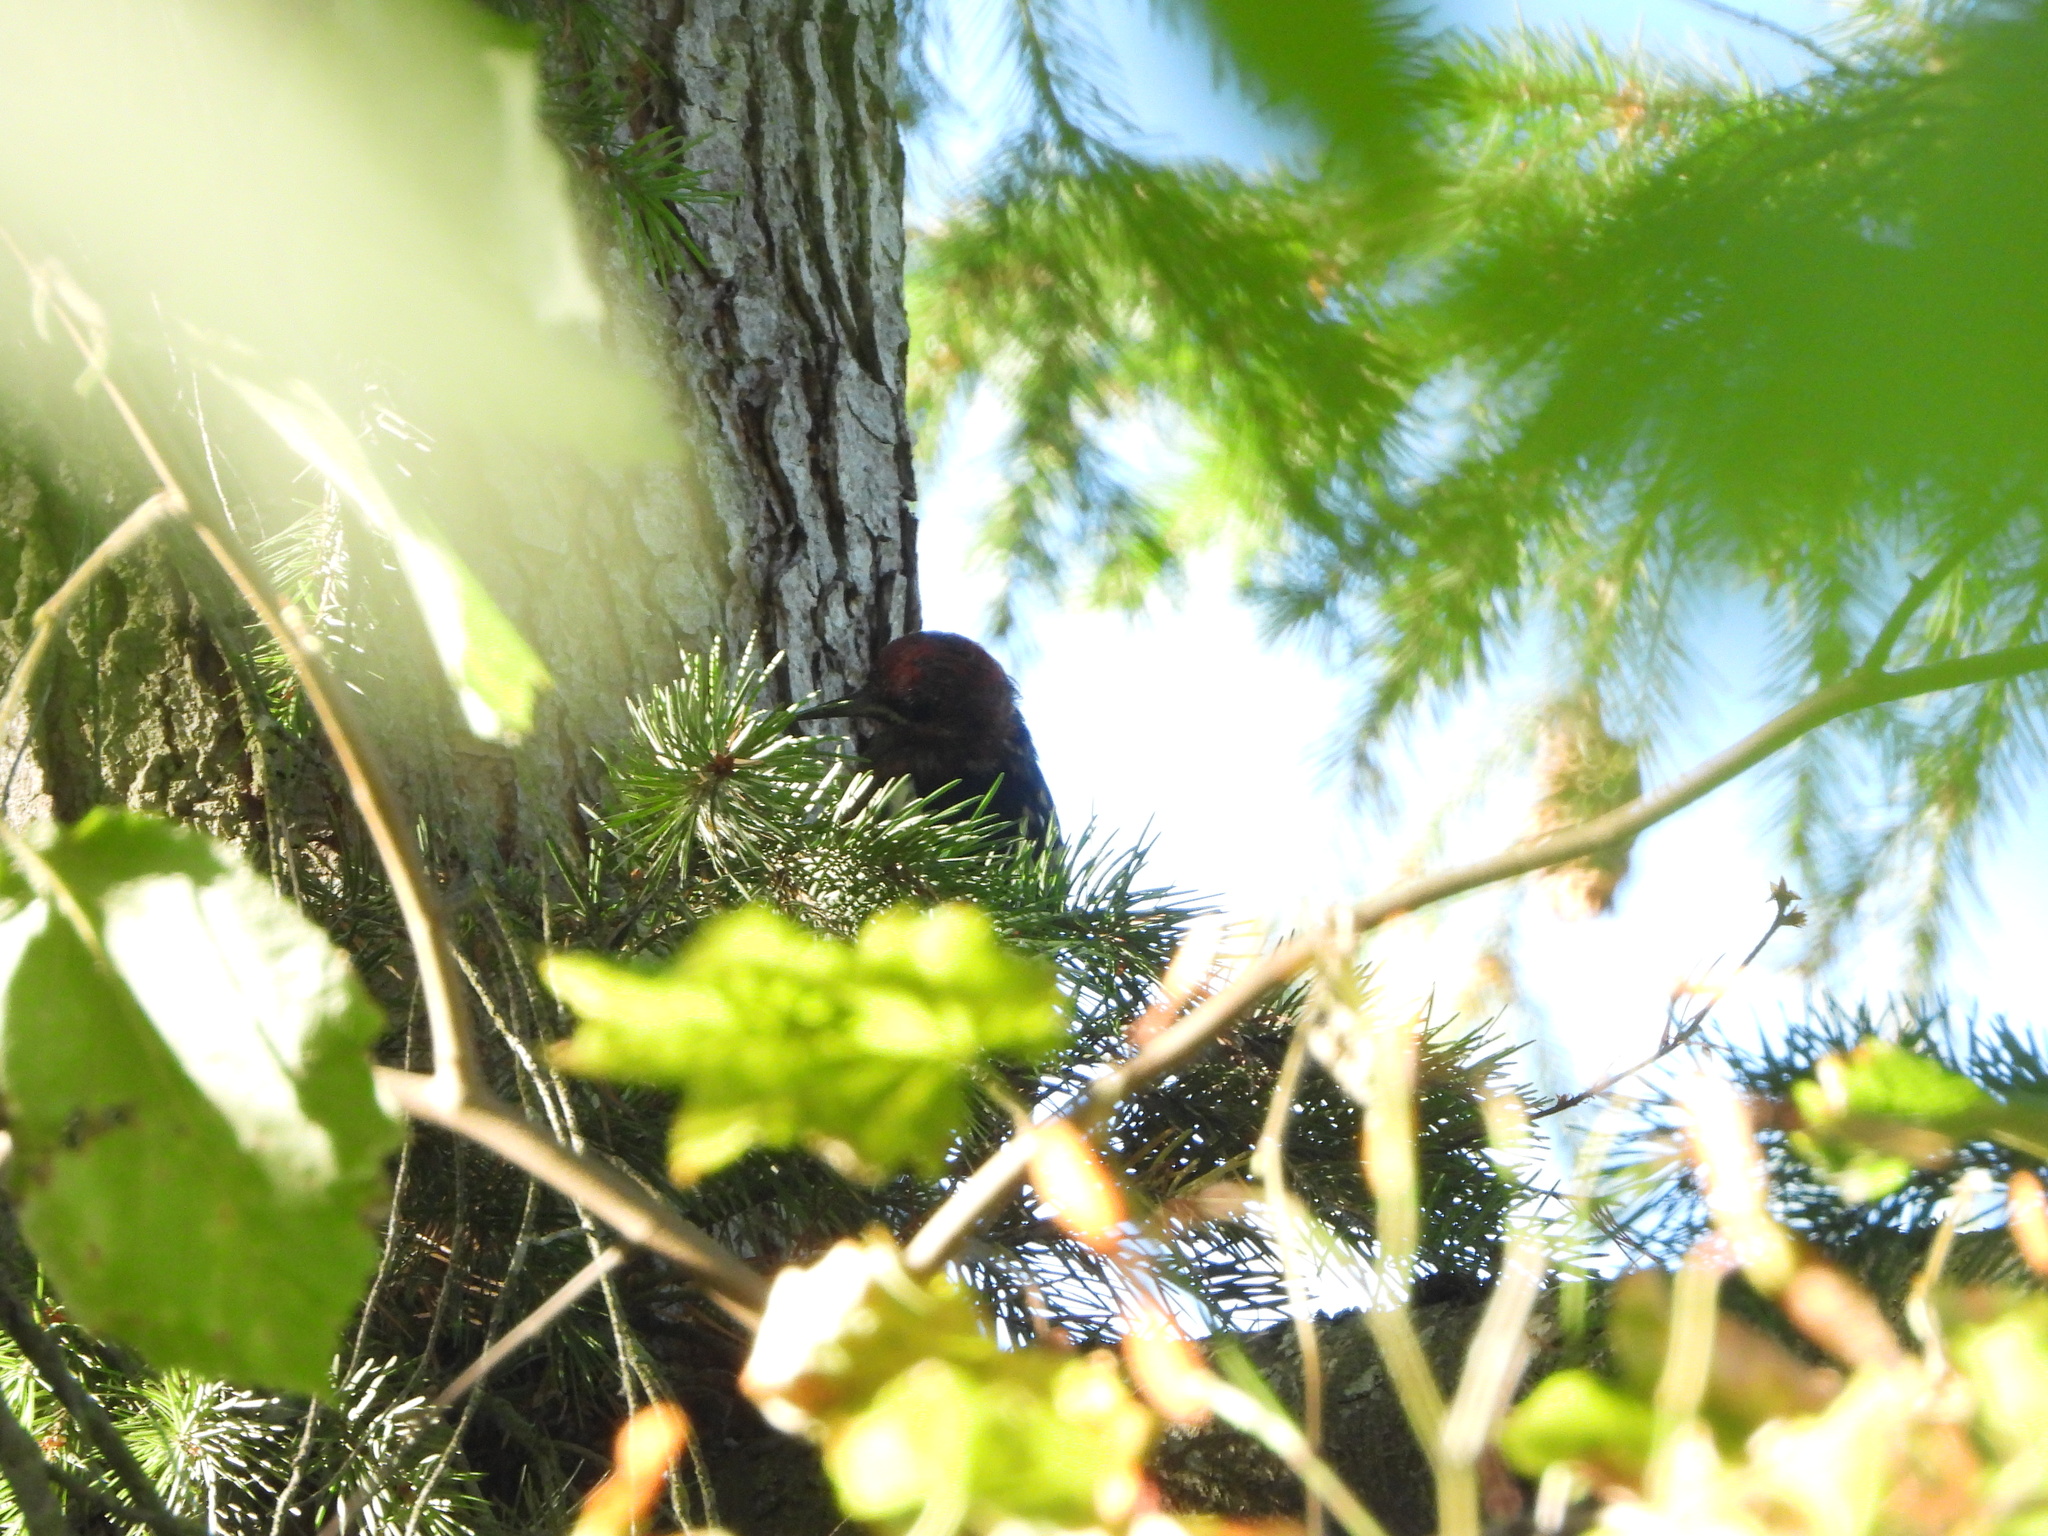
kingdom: Animalia
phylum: Chordata
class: Aves
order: Piciformes
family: Picidae
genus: Sphyrapicus
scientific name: Sphyrapicus ruber
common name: Red-breasted sapsucker
